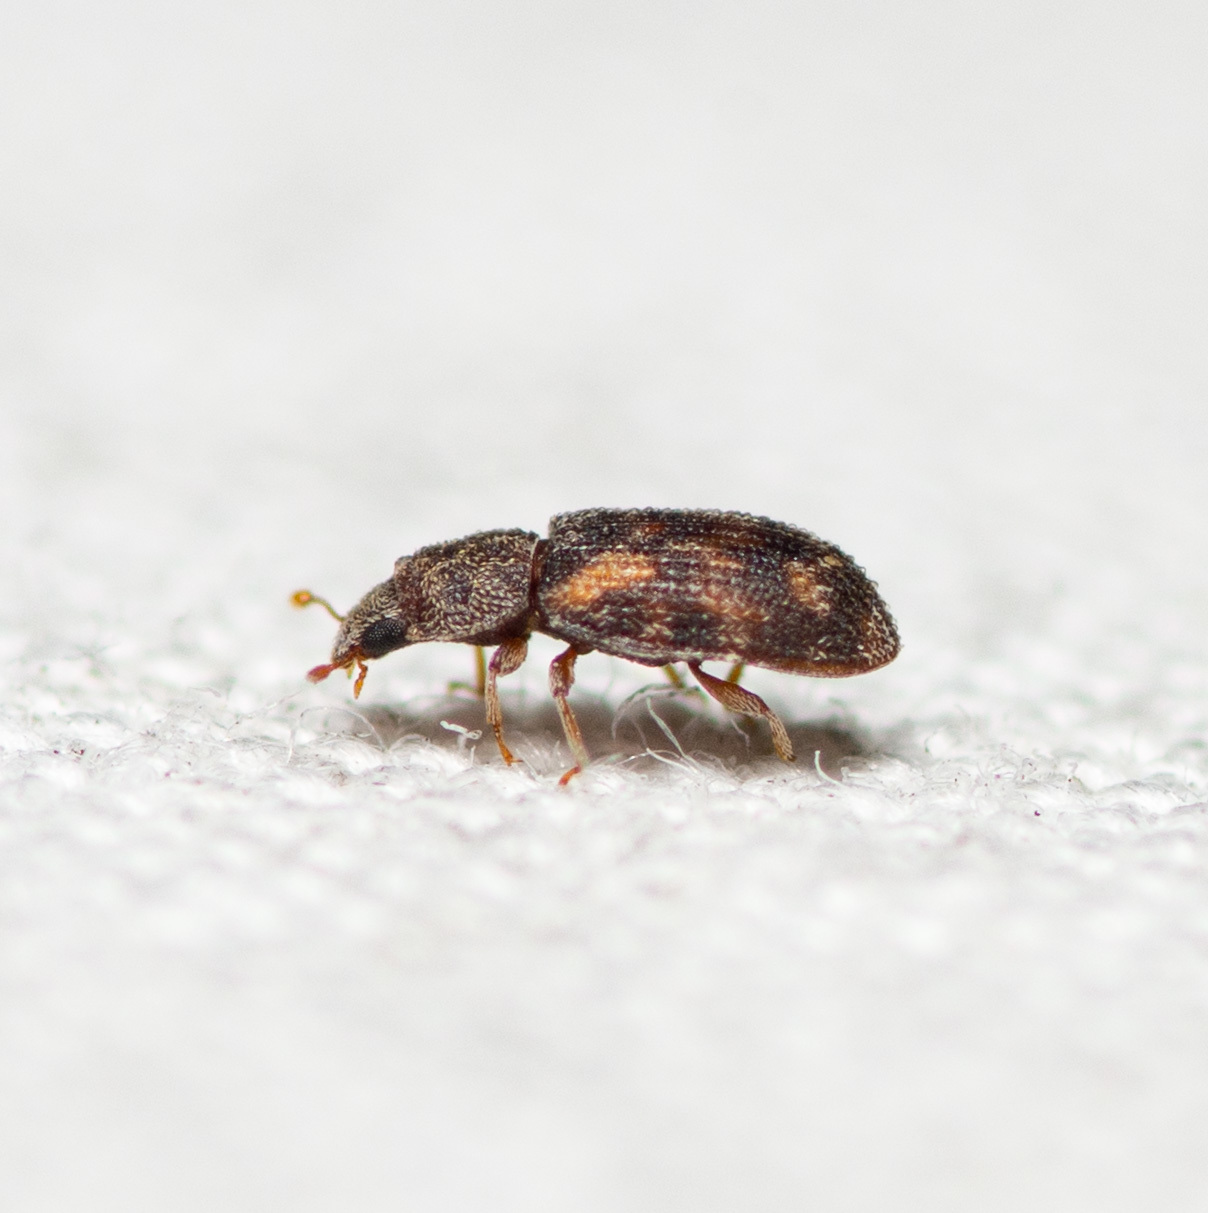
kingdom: Animalia
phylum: Arthropoda
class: Insecta
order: Coleoptera
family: Zopheridae
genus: Synchita
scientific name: Synchita
